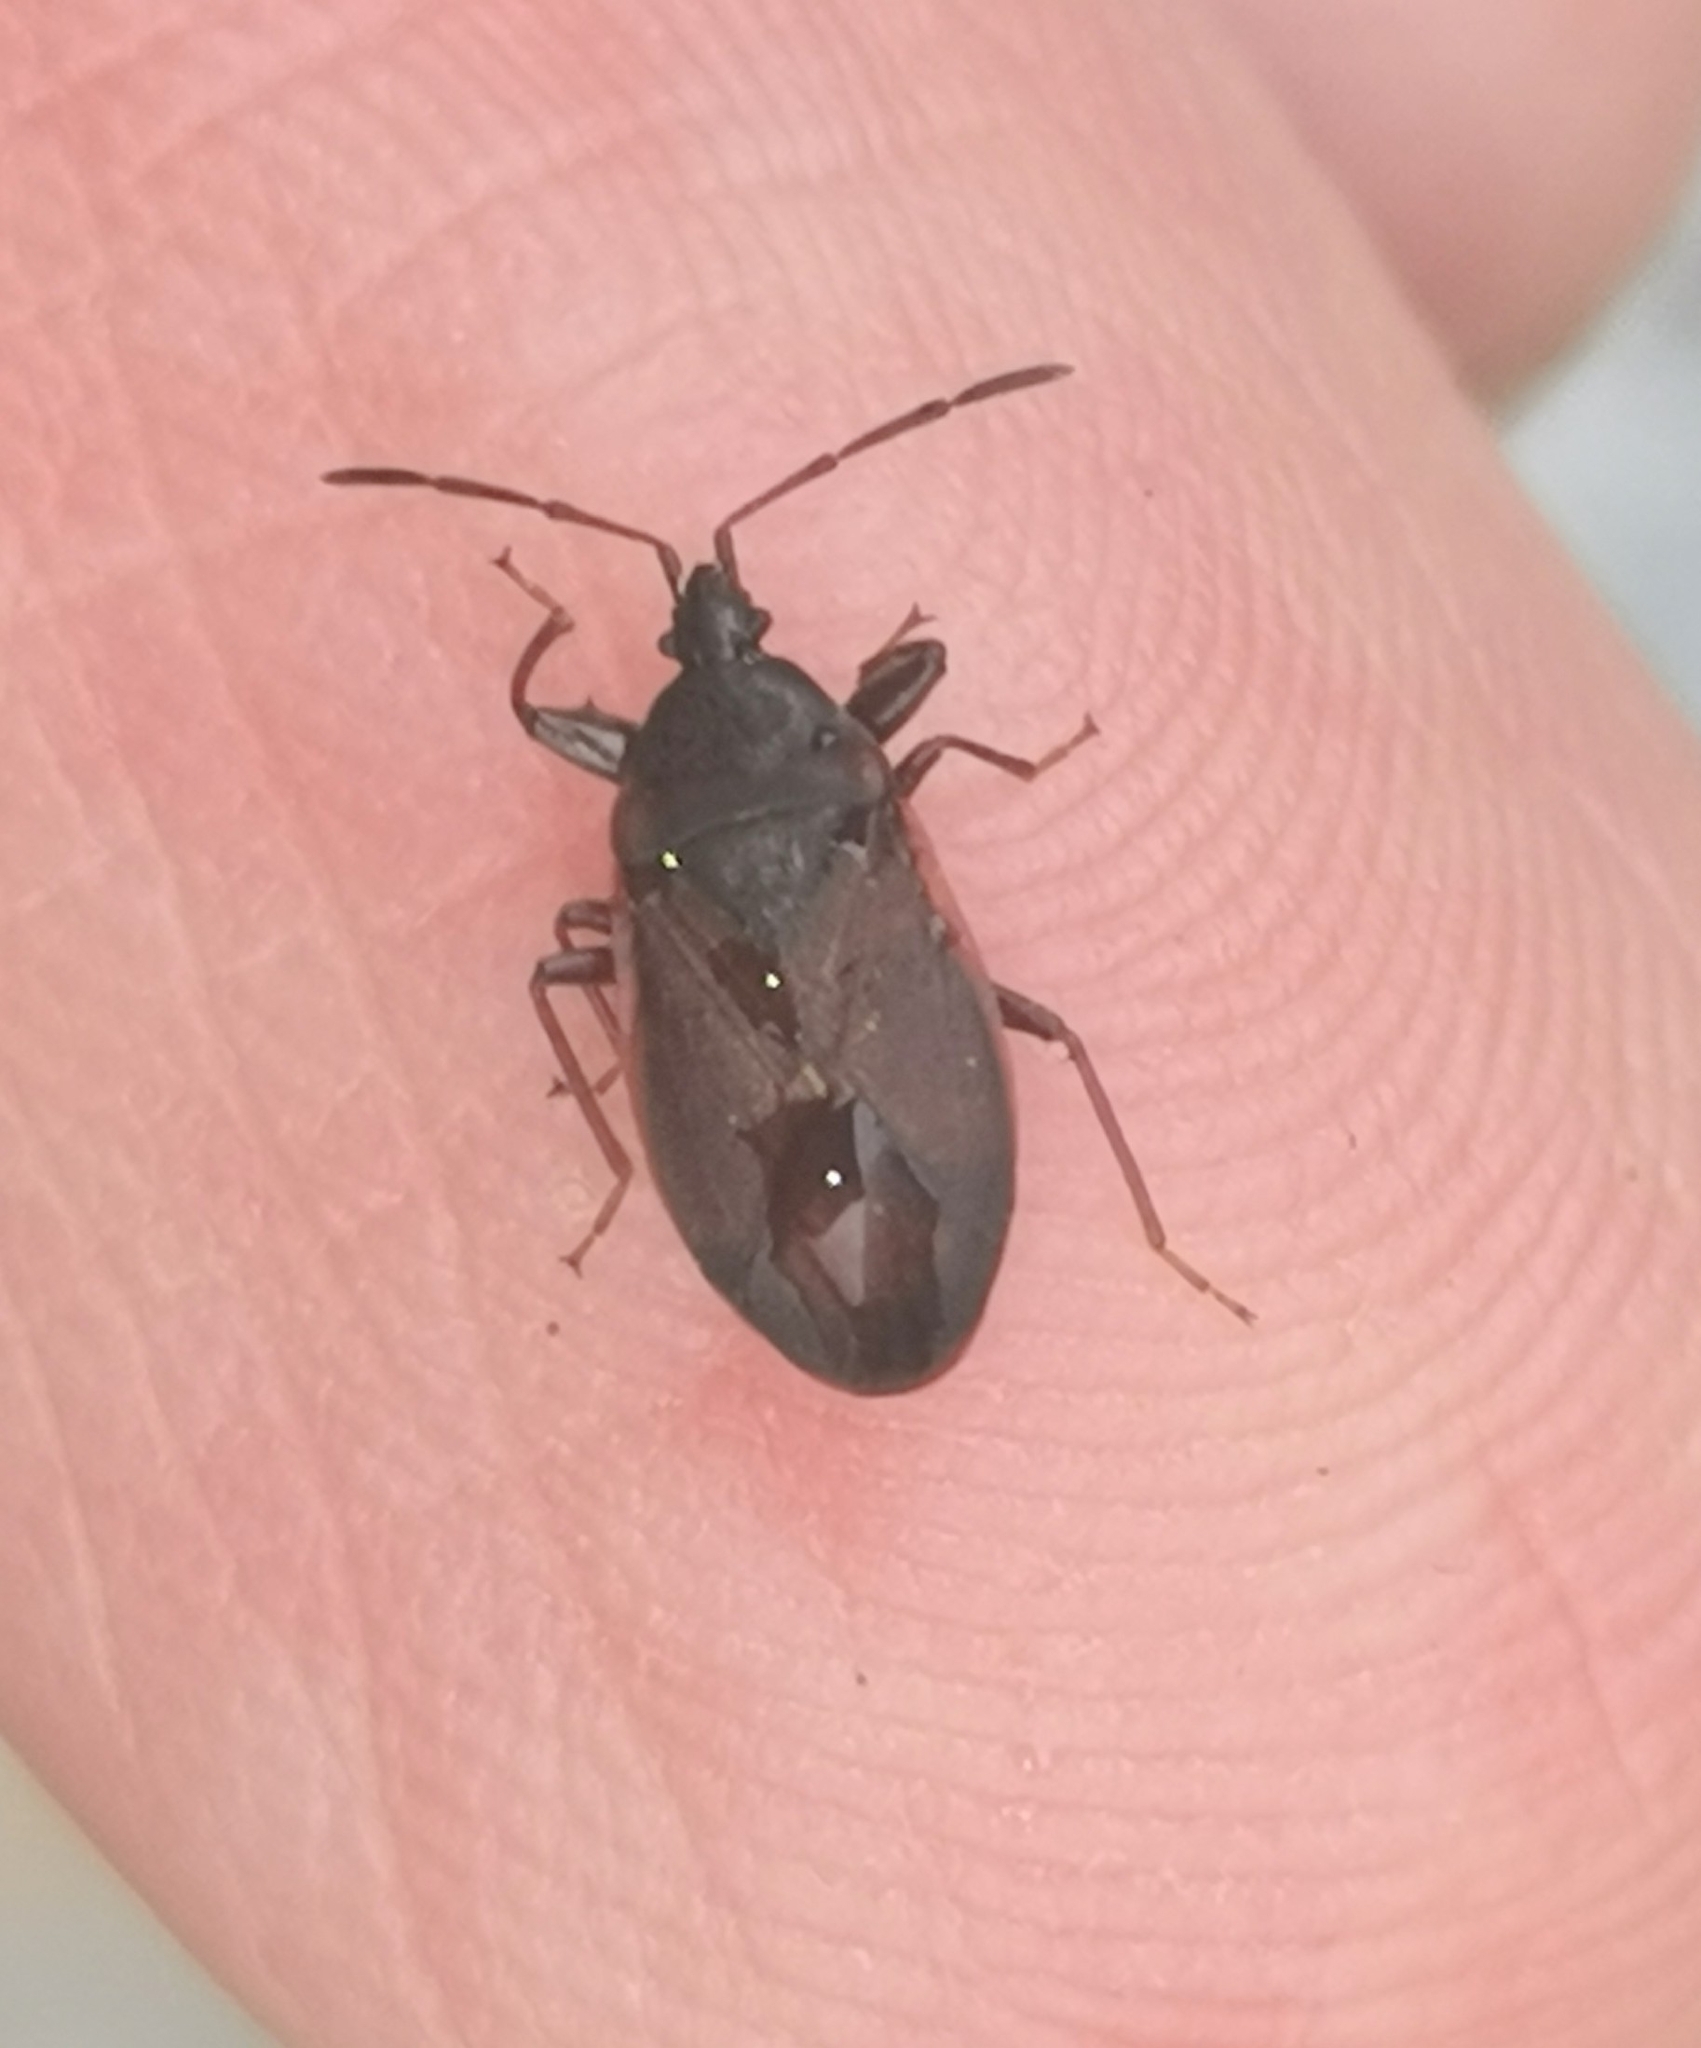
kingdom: Animalia
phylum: Arthropoda
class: Insecta
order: Hemiptera
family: Rhyparochromidae
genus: Gastrodes
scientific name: Gastrodes grossipes
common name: Pine cone bug
